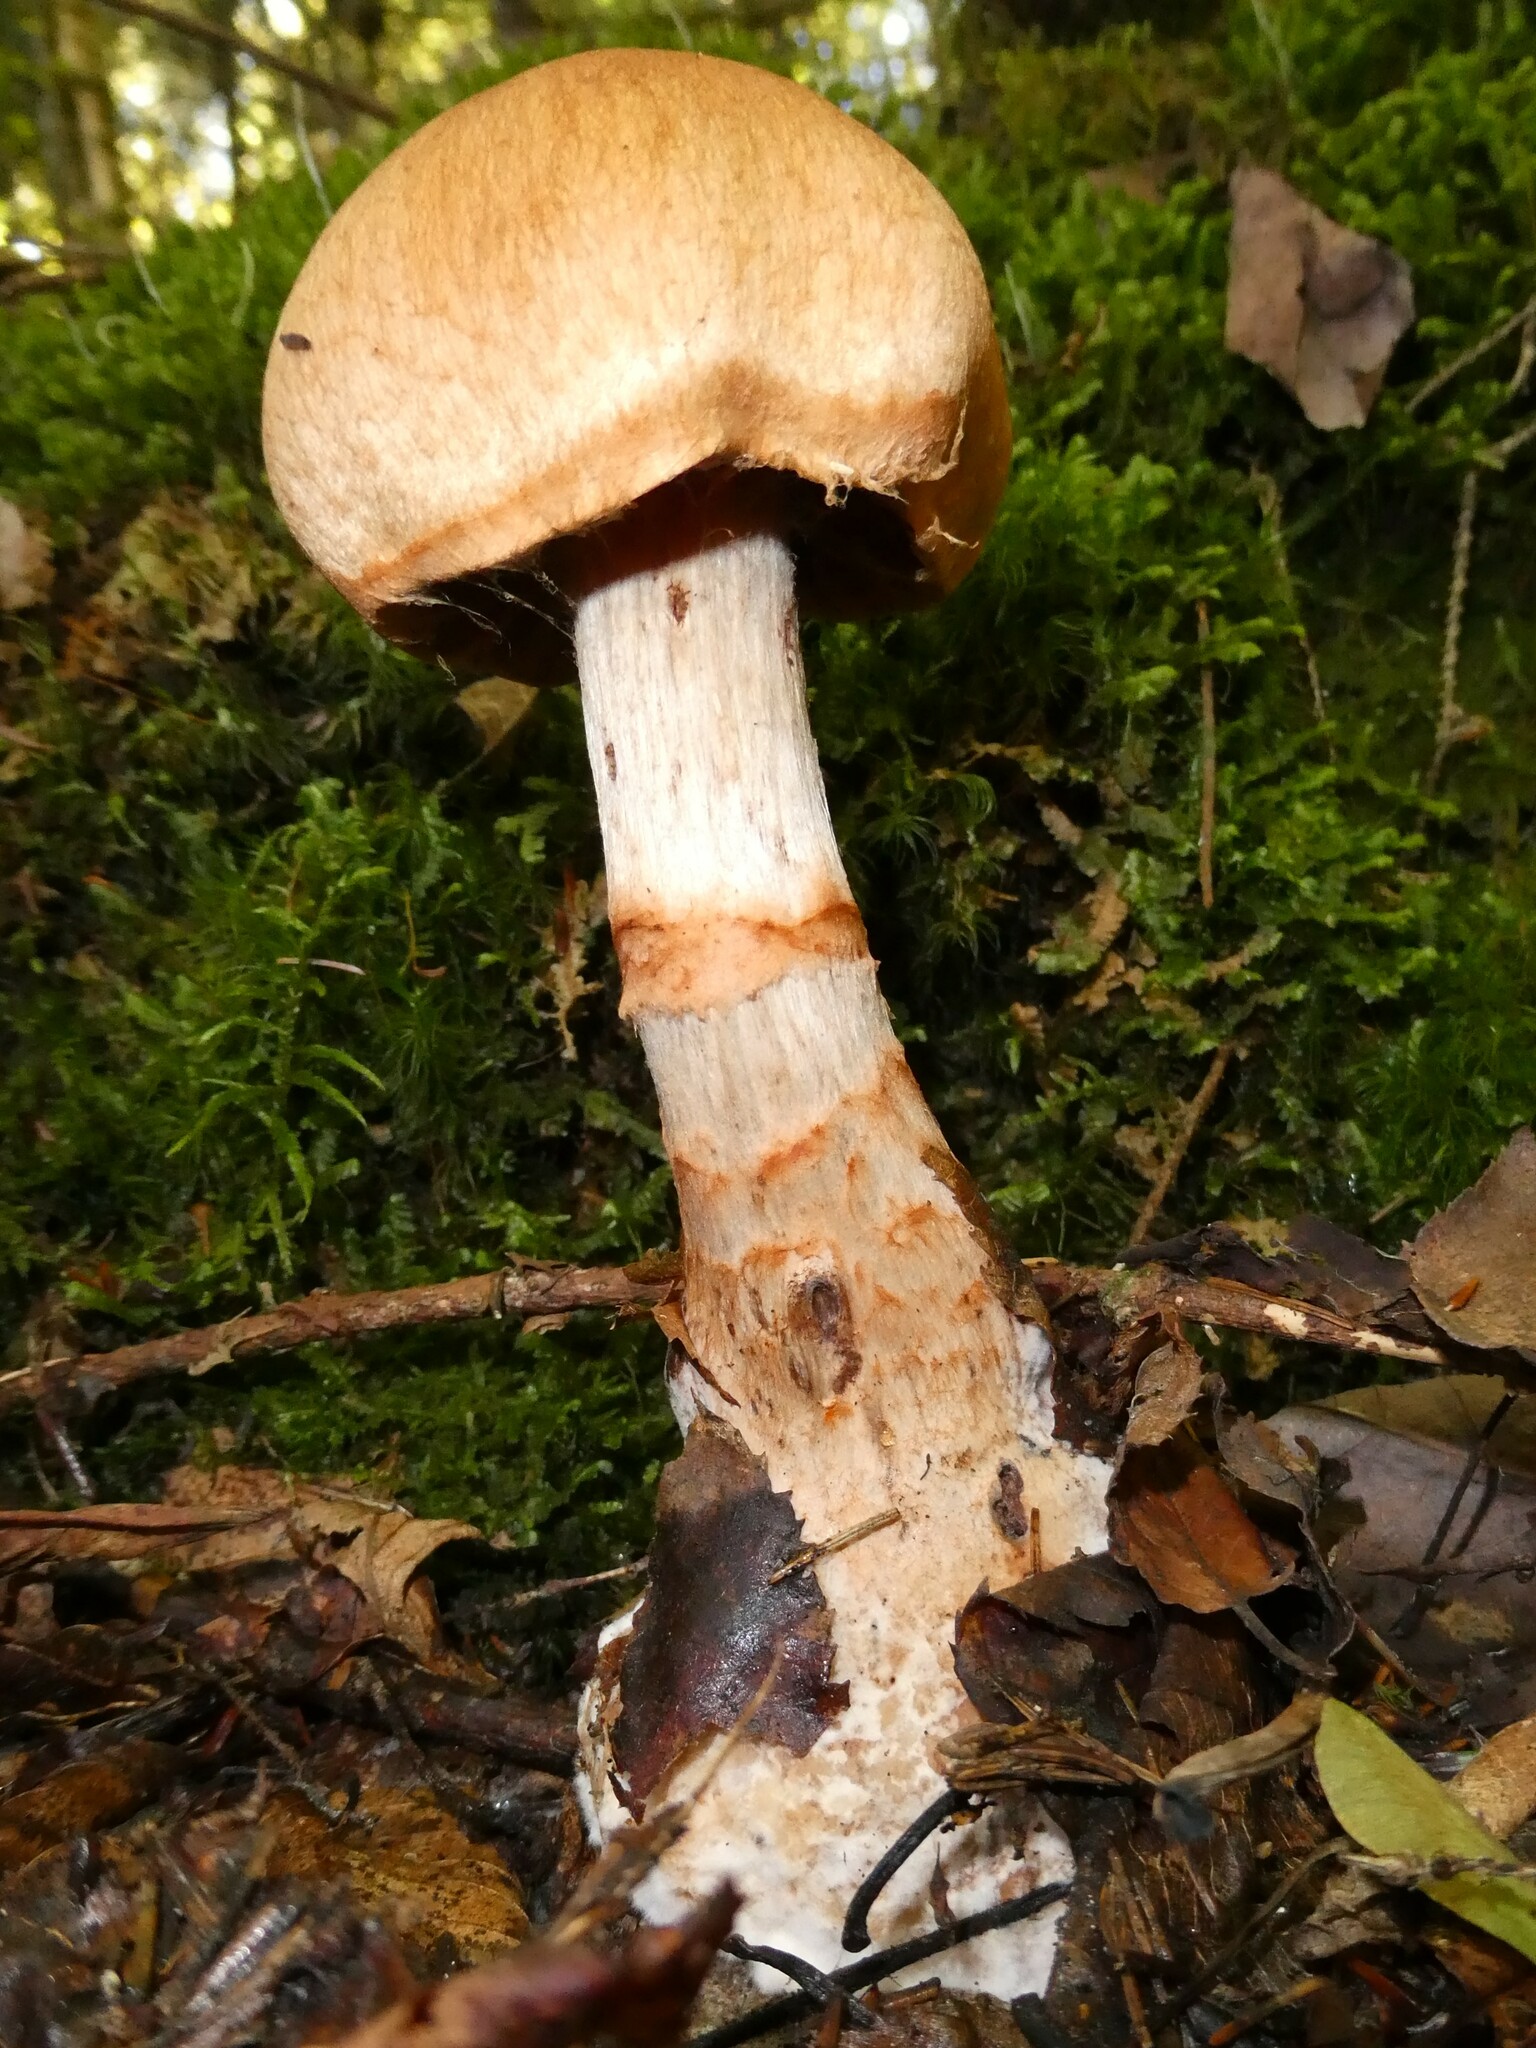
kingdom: Fungi
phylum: Basidiomycota
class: Agaricomycetes
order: Agaricales
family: Cortinariaceae
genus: Cortinarius
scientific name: Cortinarius armillatus
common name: Red banded webcap
